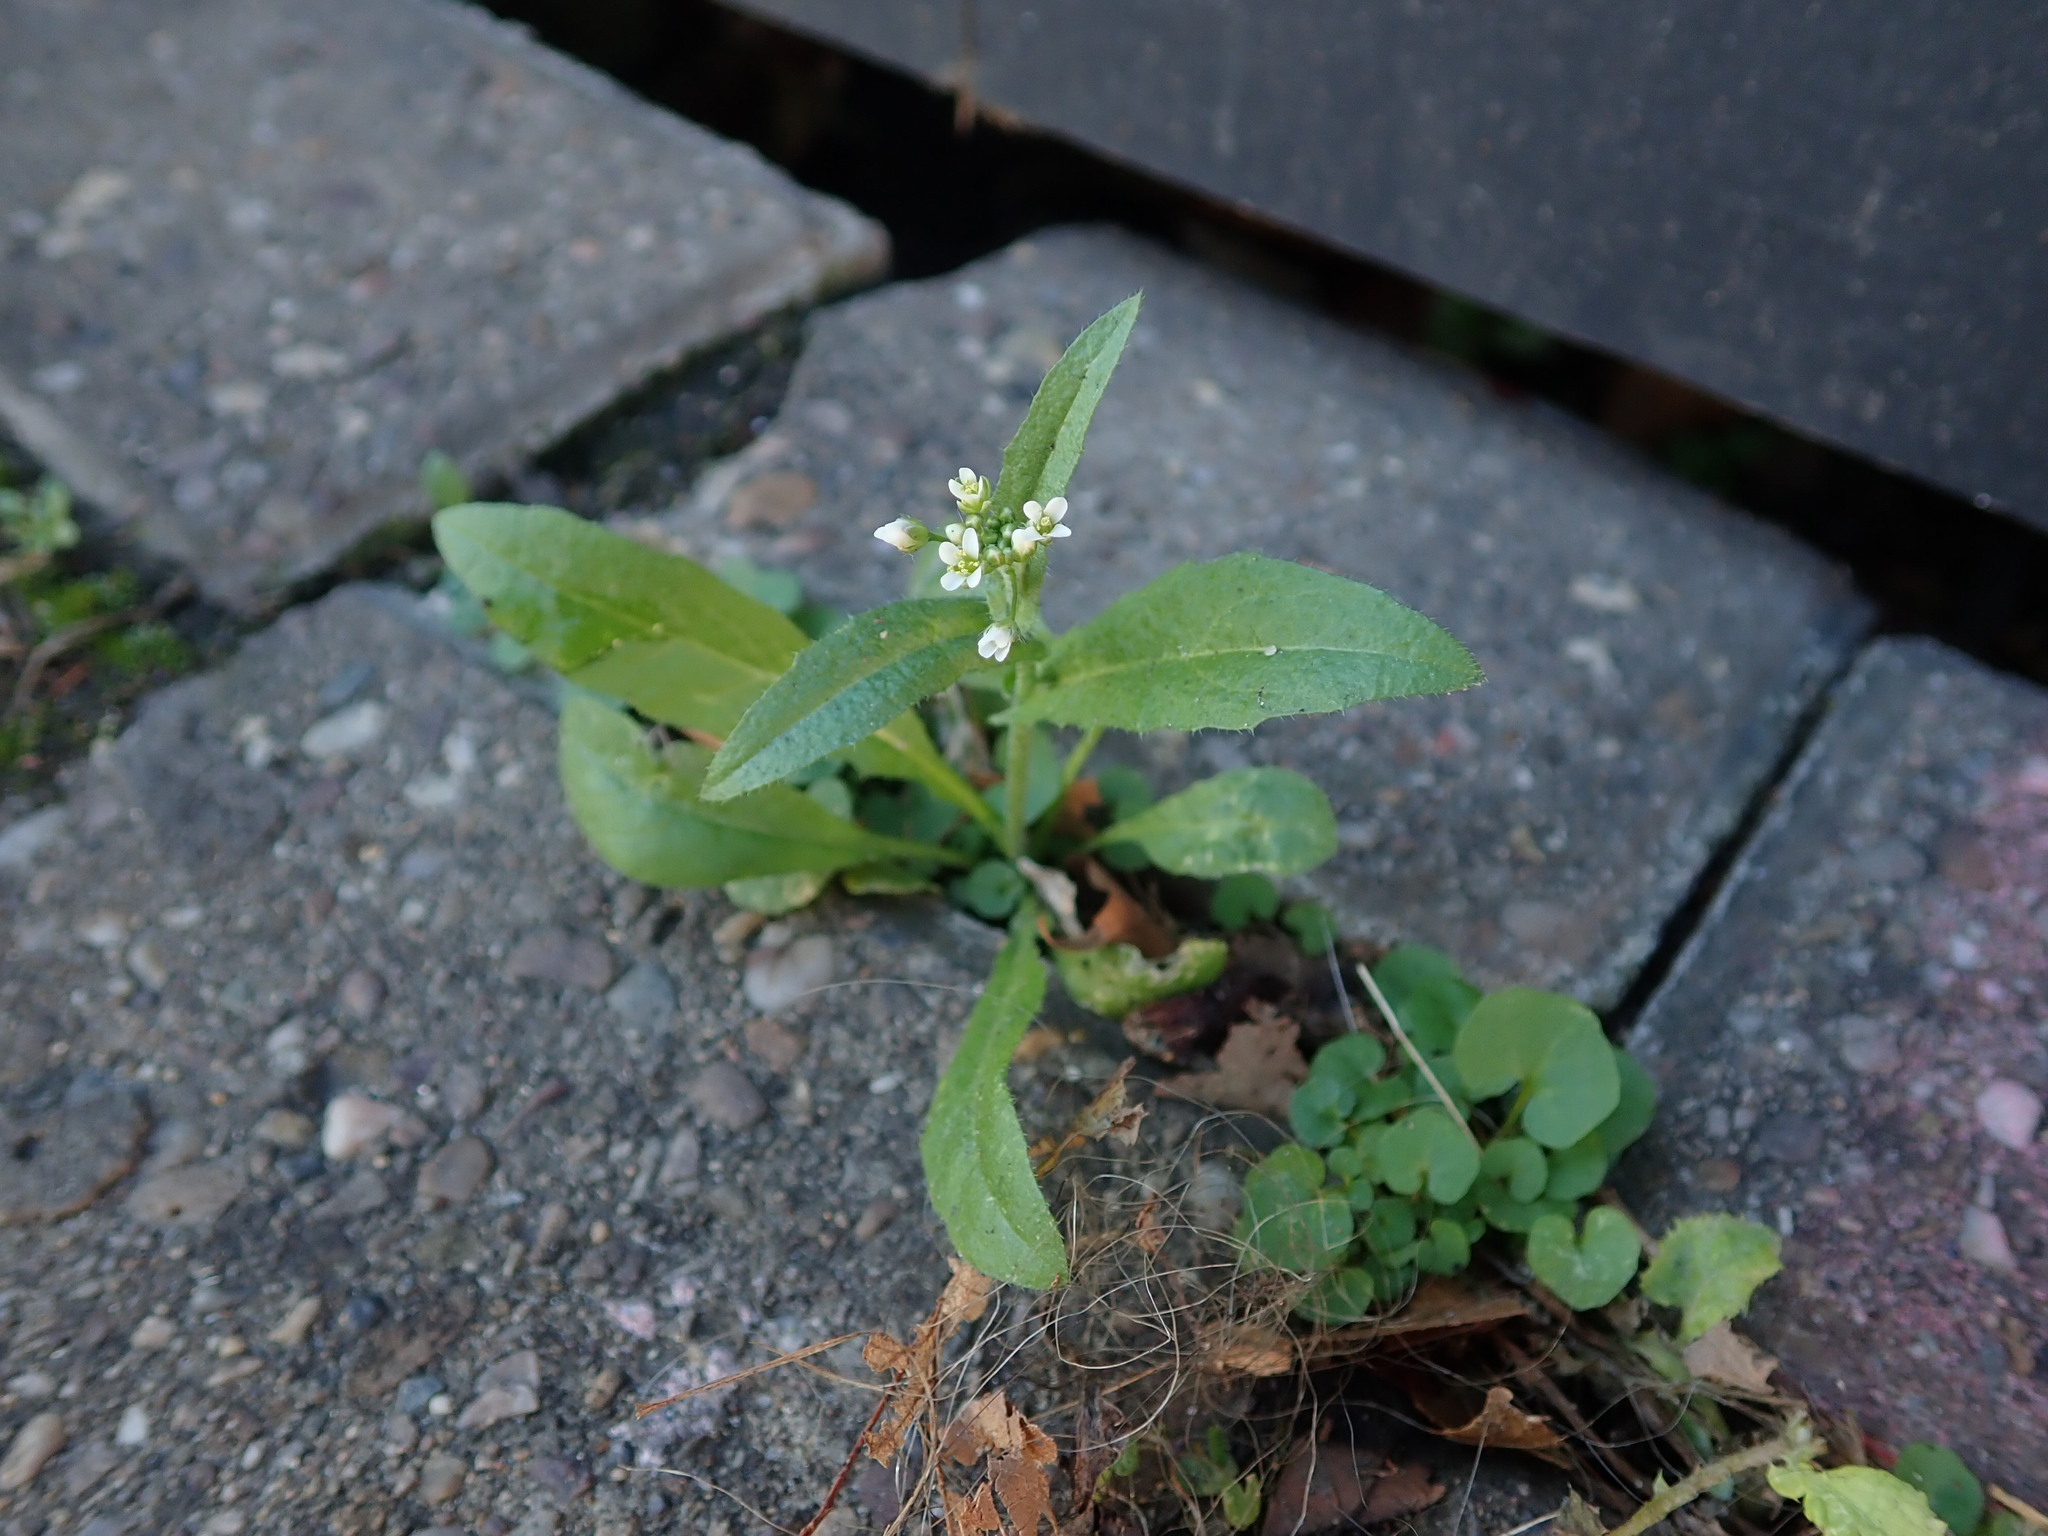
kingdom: Plantae
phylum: Tracheophyta
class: Magnoliopsida
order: Brassicales
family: Brassicaceae
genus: Lobularia
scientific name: Lobularia maritima
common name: Sweet alison
